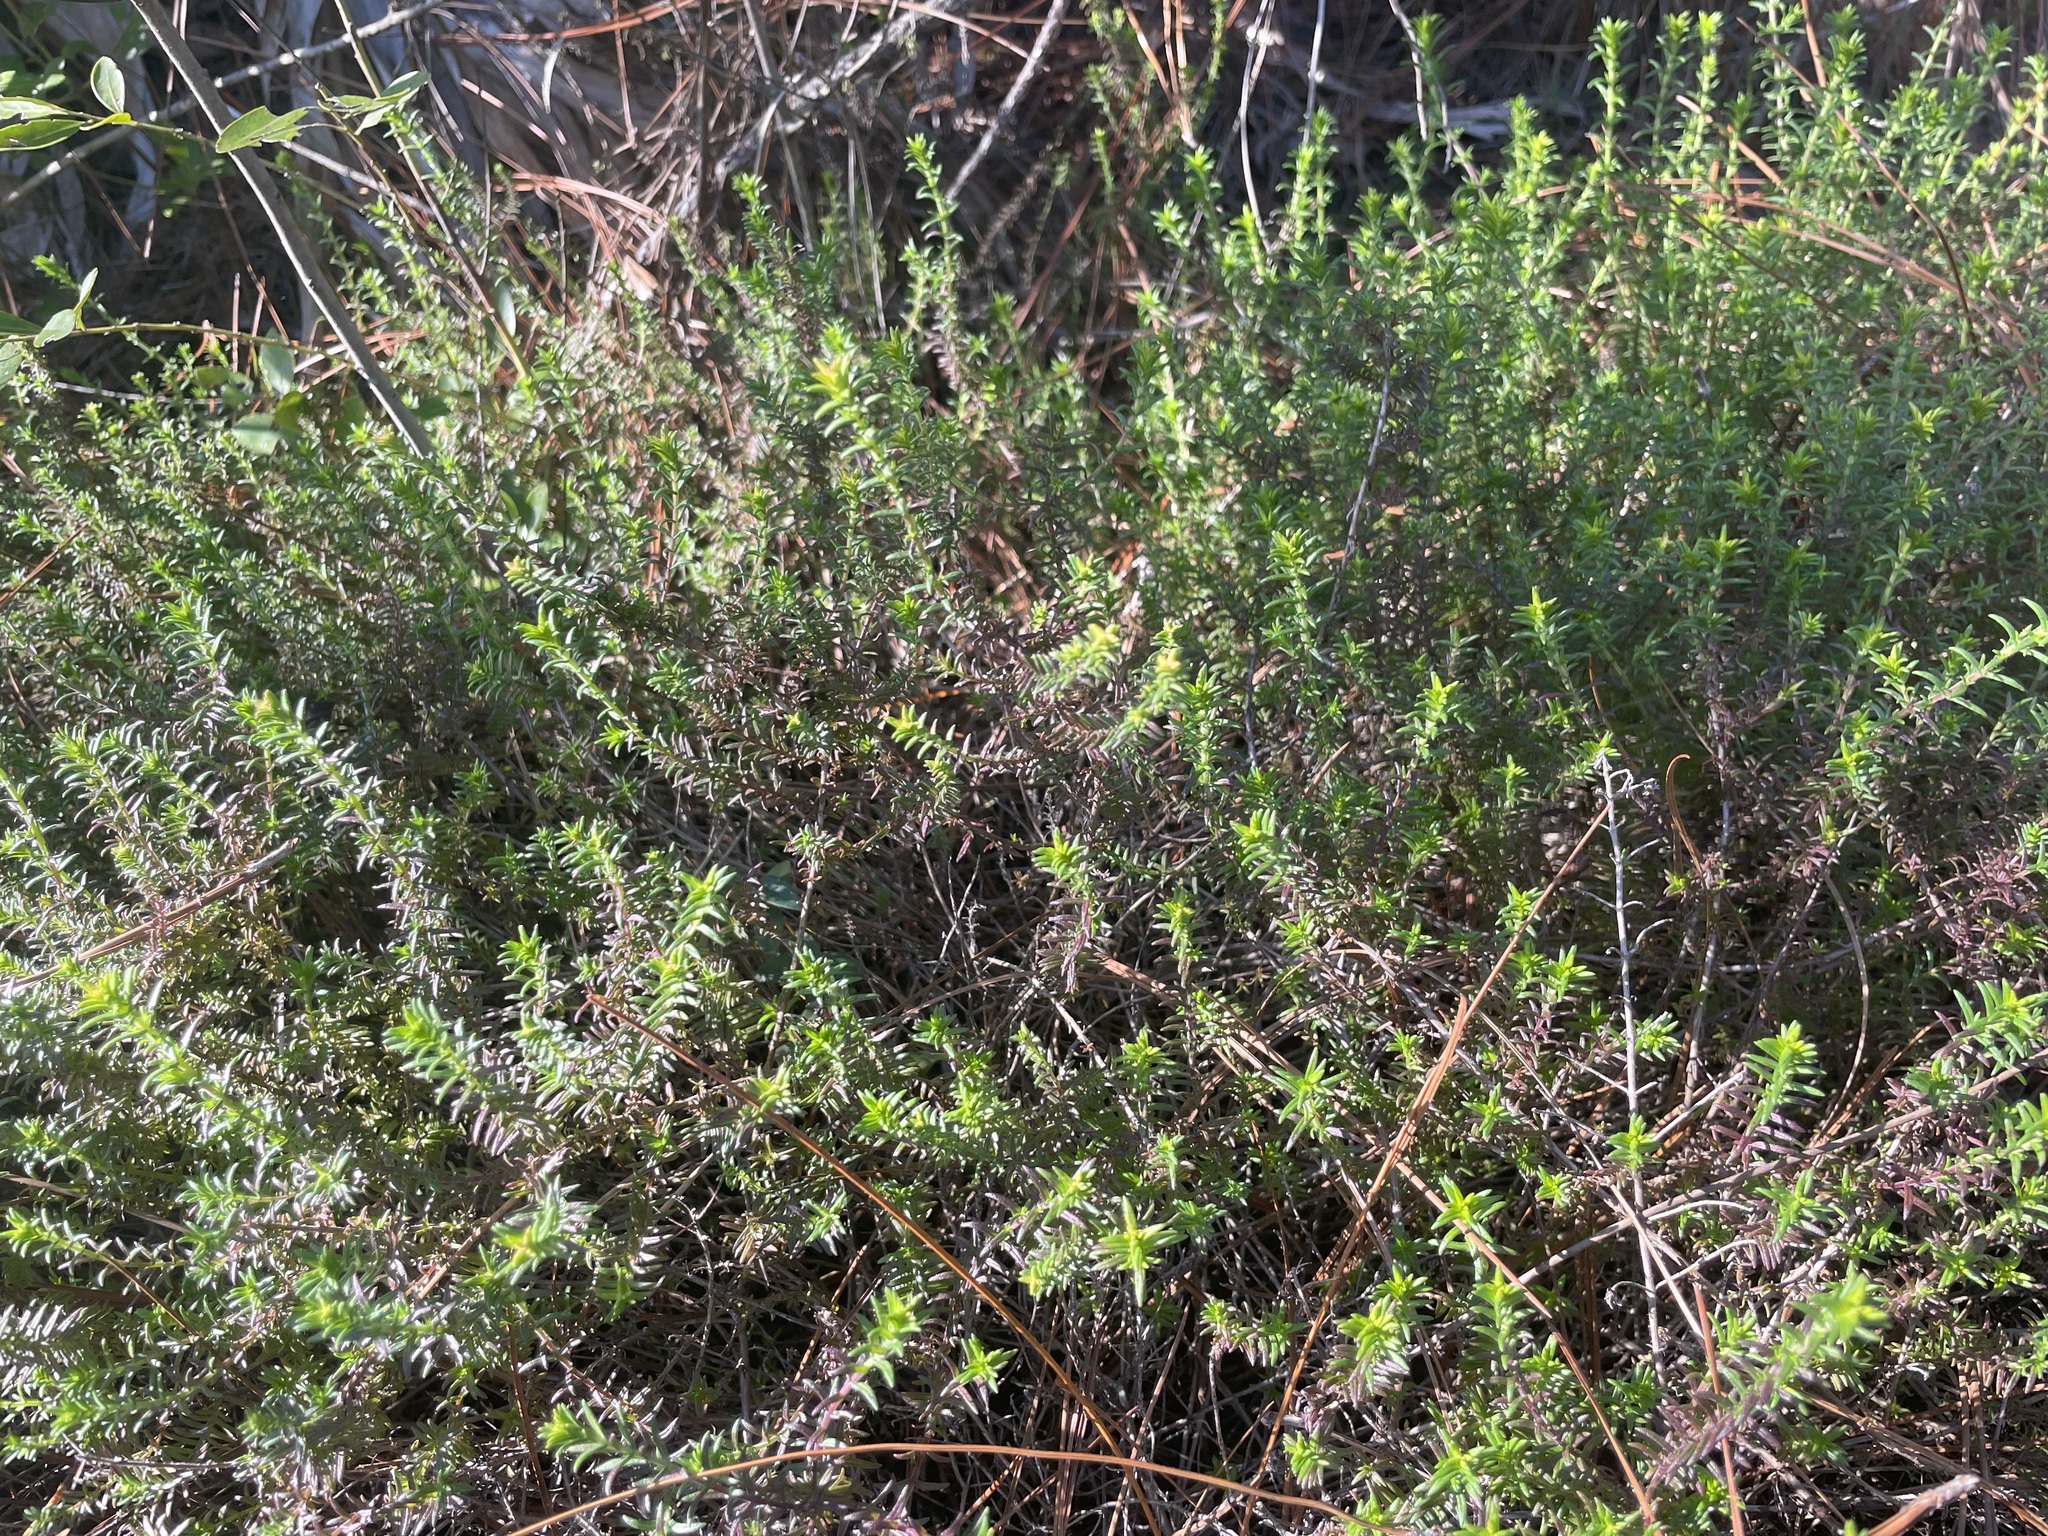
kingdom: Plantae
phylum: Tracheophyta
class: Magnoliopsida
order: Lamiales
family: Lamiaceae
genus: Piloblephis
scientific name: Piloblephis rigida
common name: Wild pennyroyal
